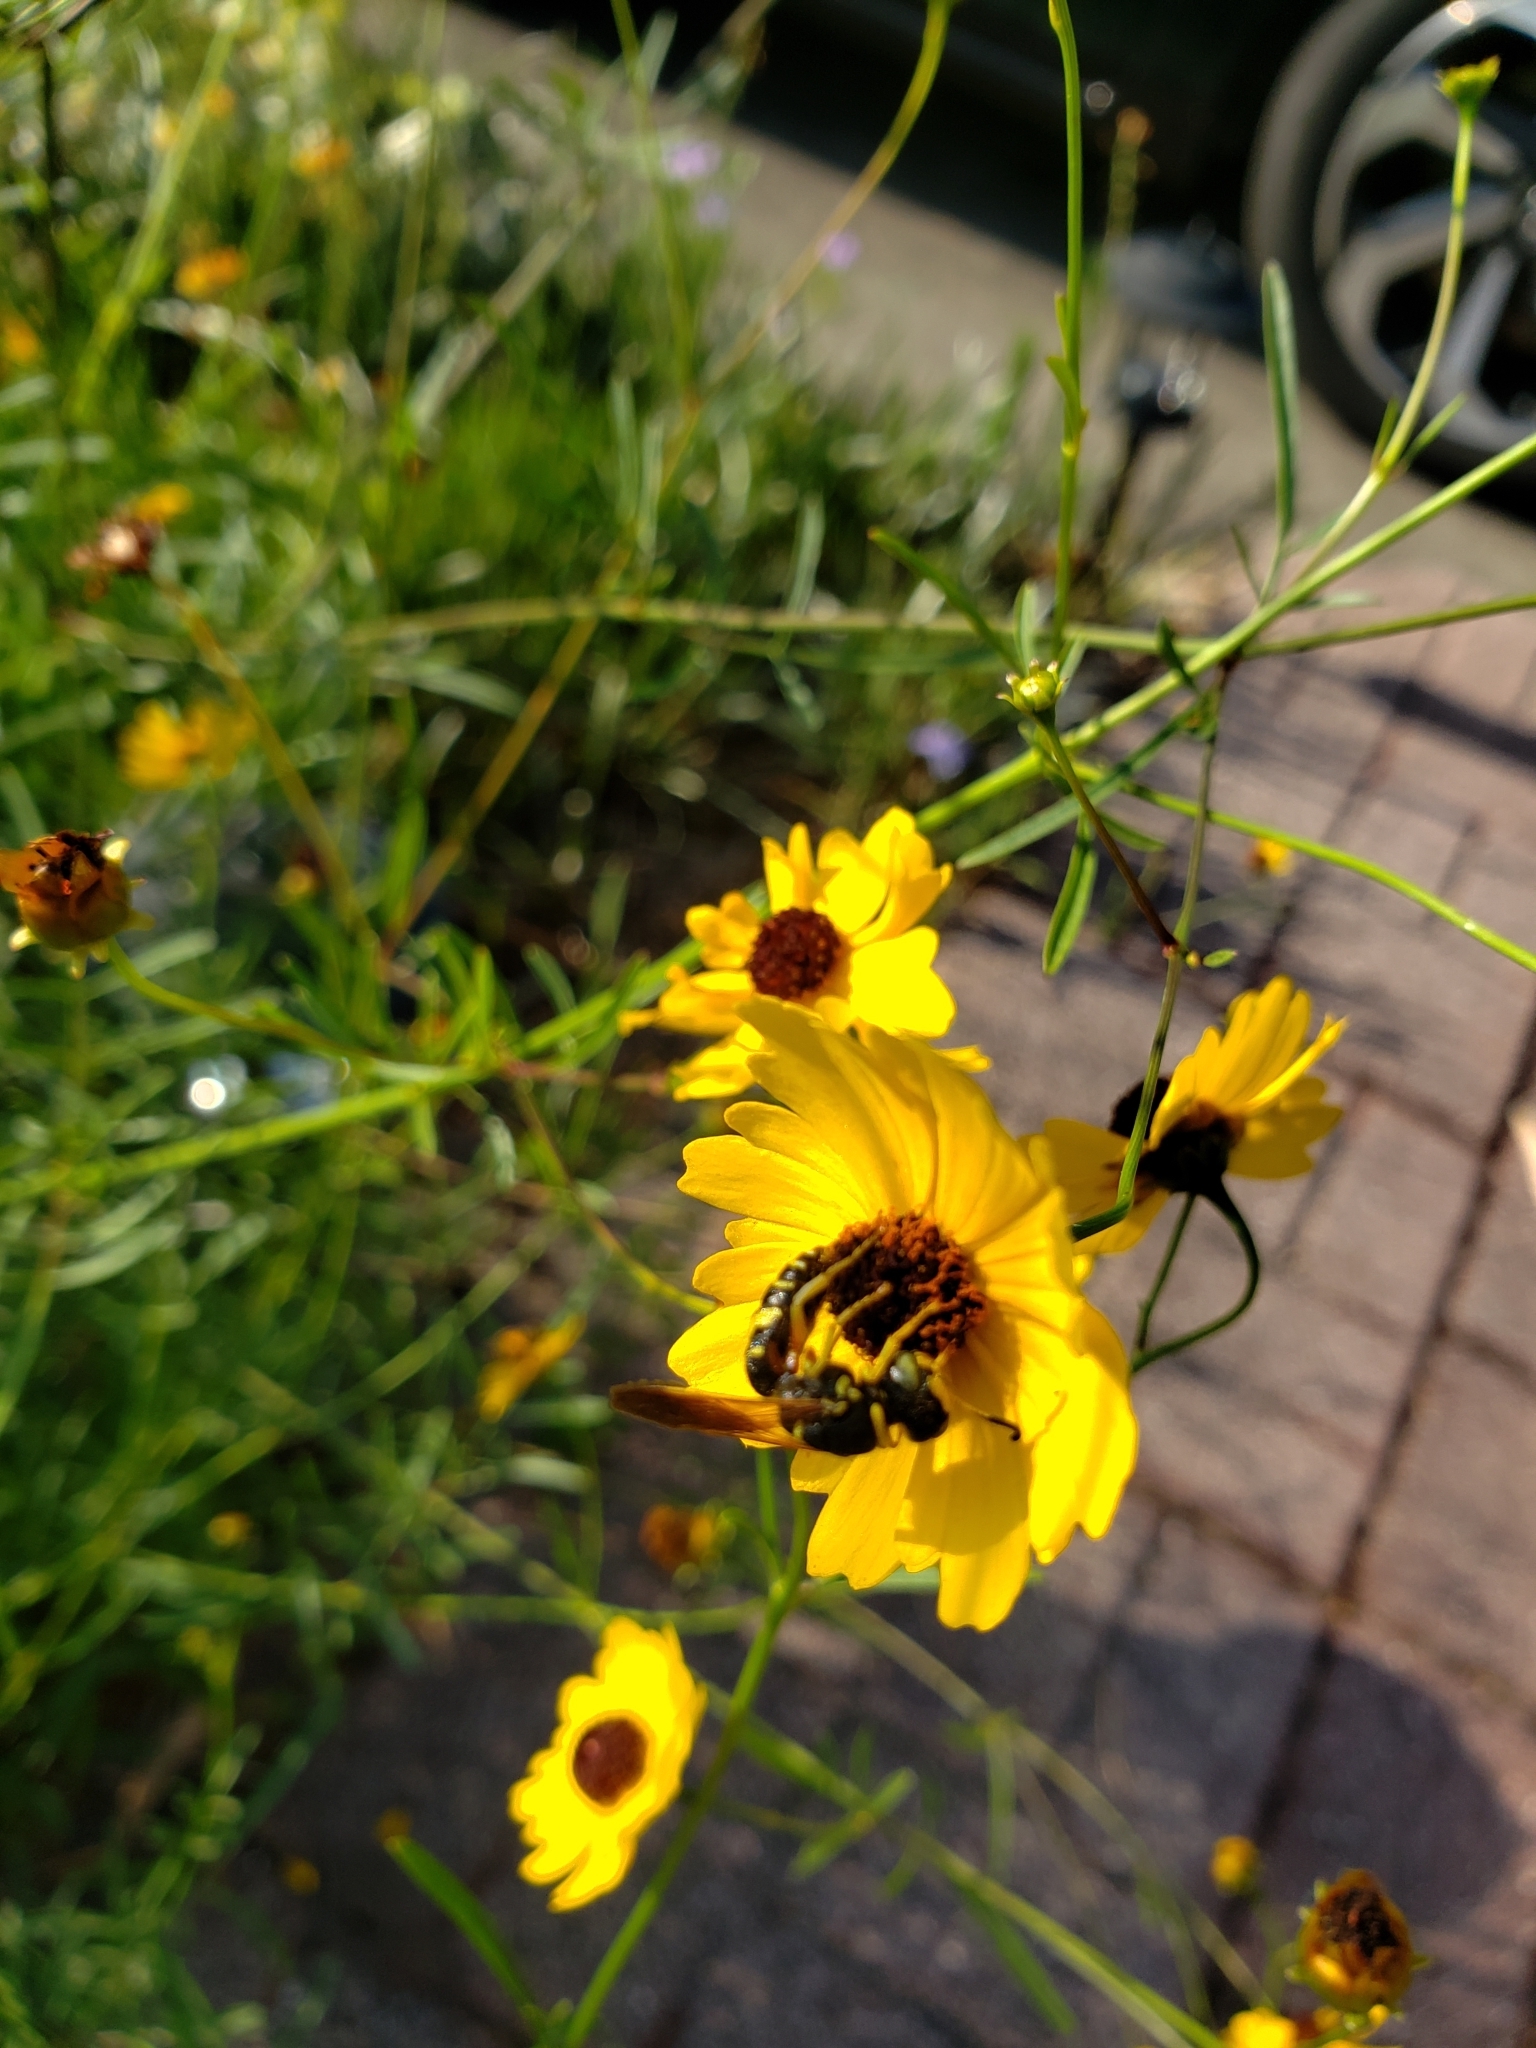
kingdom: Animalia
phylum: Arthropoda
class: Insecta
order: Hymenoptera
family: Crabronidae
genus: Philanthus
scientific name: Philanthus ventilabris
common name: Bee-killer wasp
